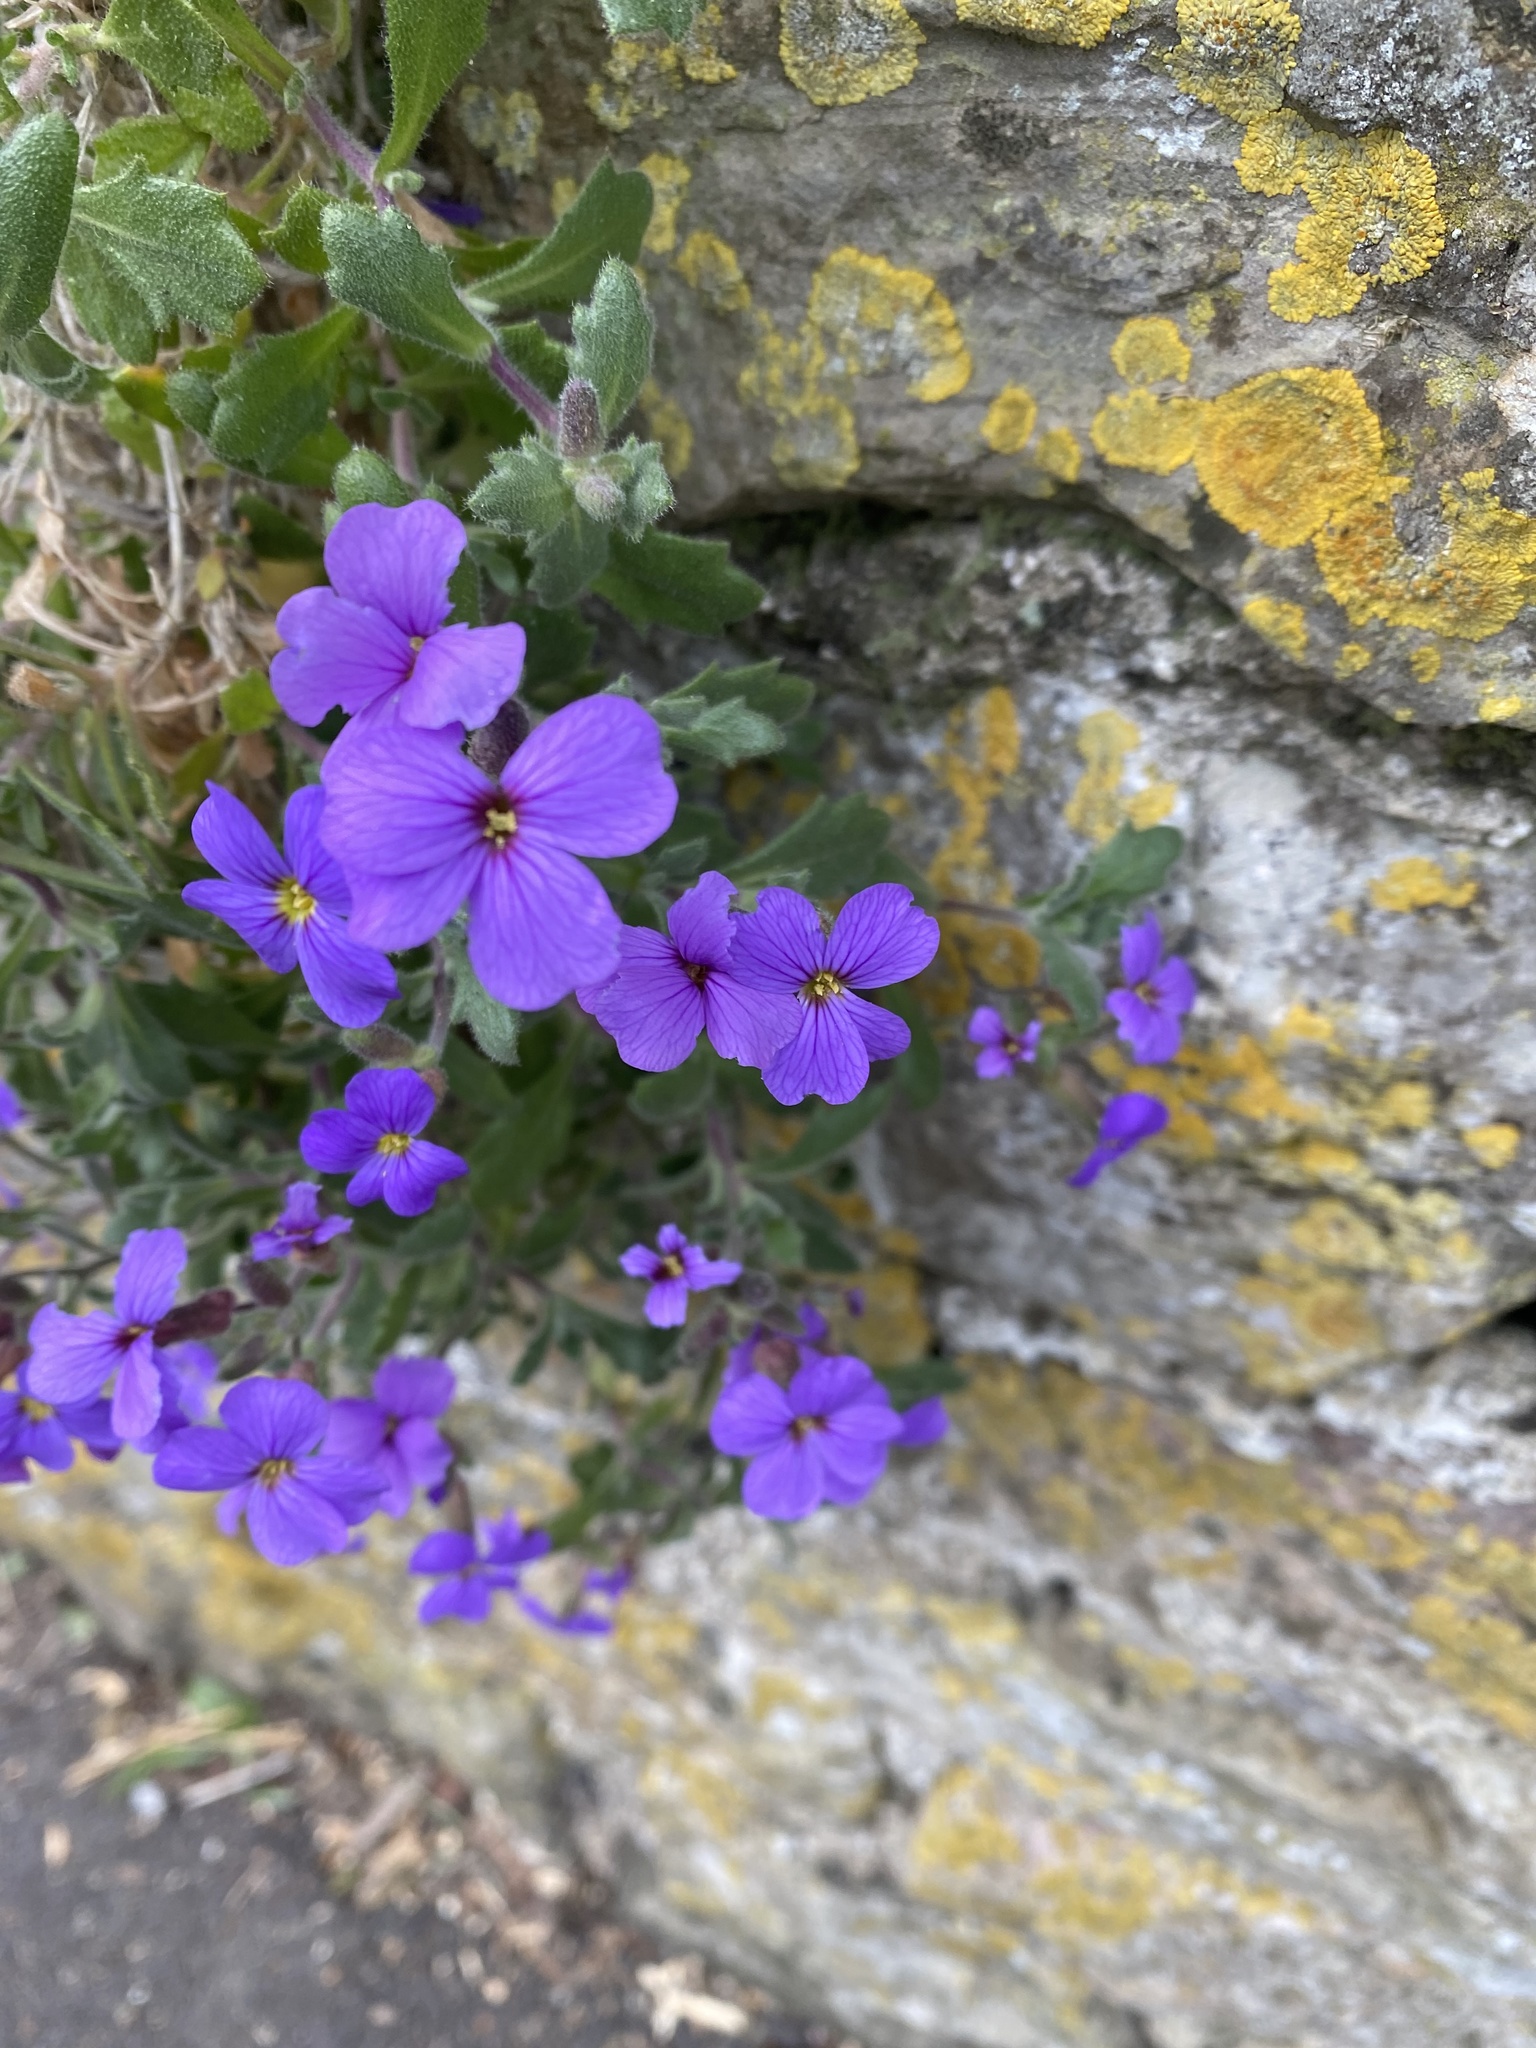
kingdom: Plantae
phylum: Tracheophyta
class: Magnoliopsida
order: Brassicales
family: Brassicaceae
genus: Aubrieta
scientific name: Aubrieta deltoidea
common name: Aubretia
